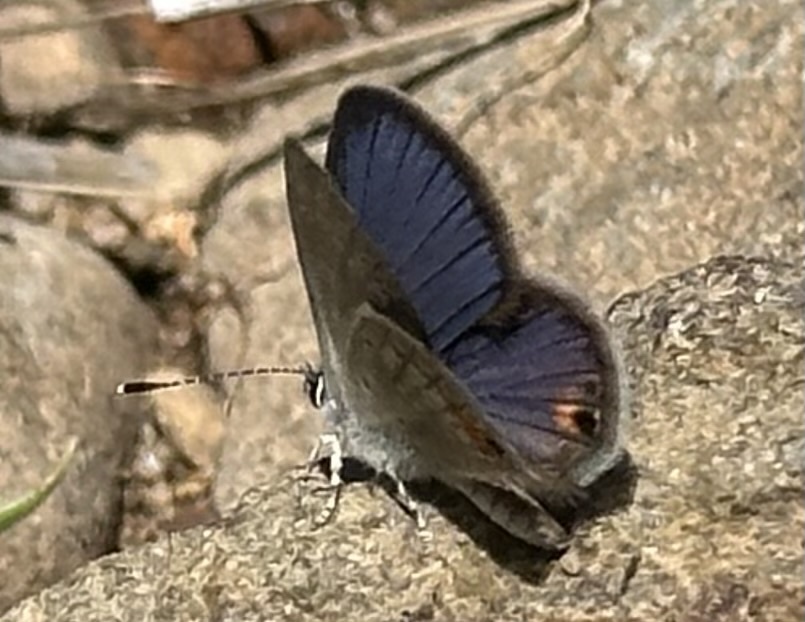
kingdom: Animalia
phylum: Arthropoda
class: Insecta
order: Lepidoptera
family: Lycaenidae
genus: Eicochrysops
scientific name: Eicochrysops messapus
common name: Cupreous blue
